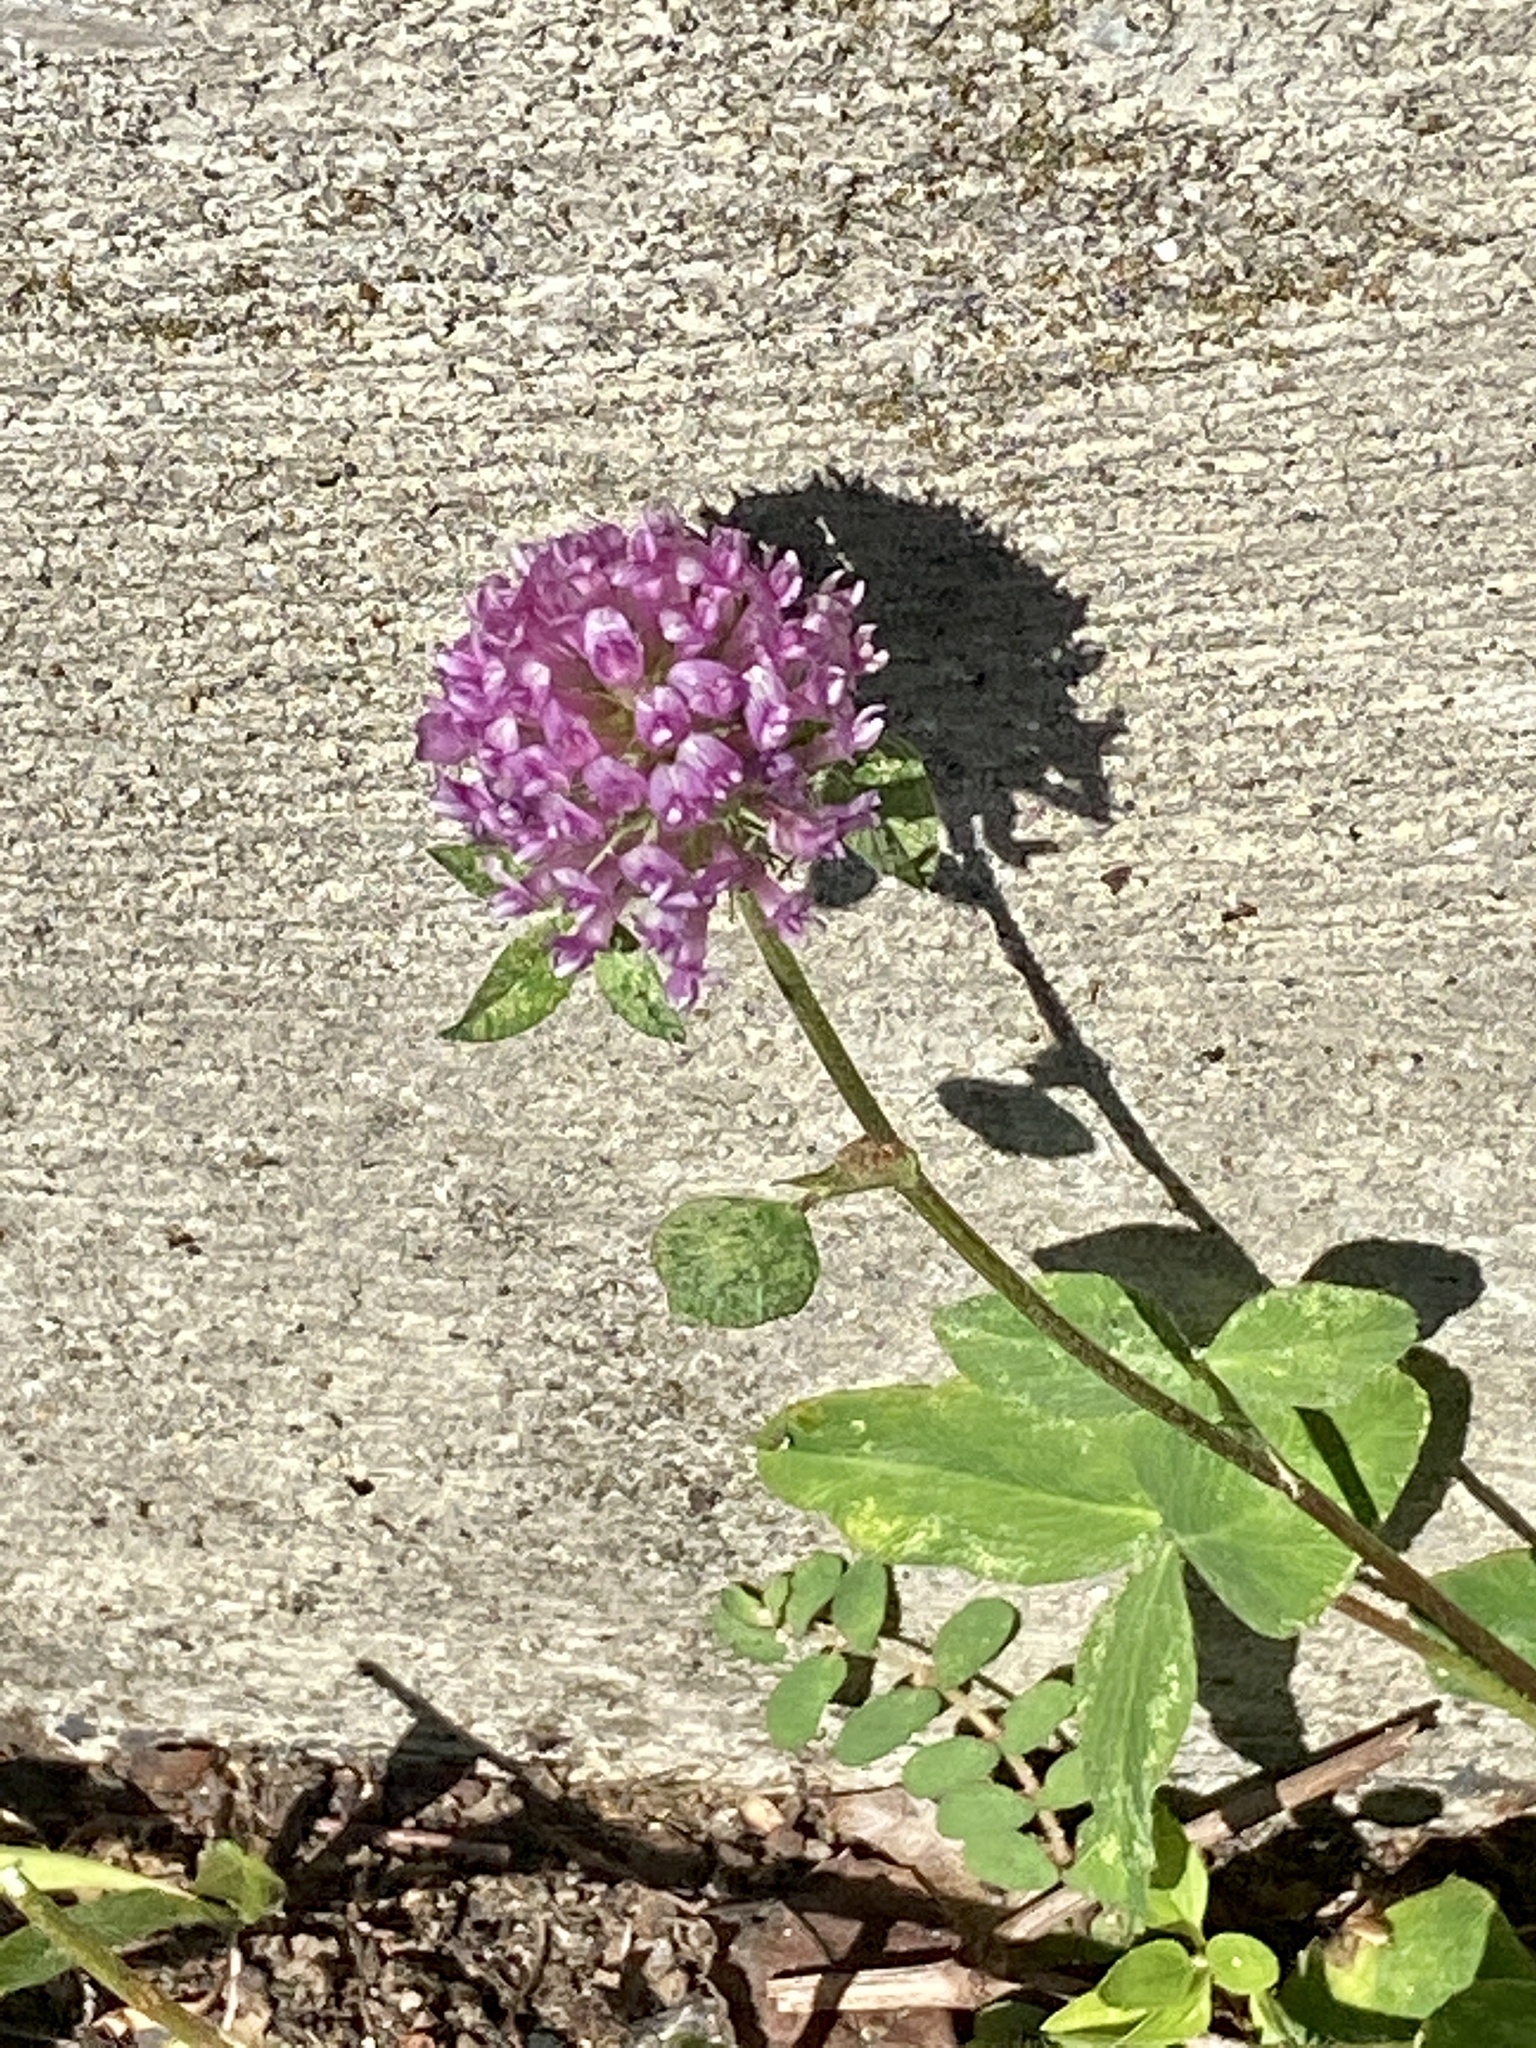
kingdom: Plantae
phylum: Tracheophyta
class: Magnoliopsida
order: Fabales
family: Fabaceae
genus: Trifolium
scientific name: Trifolium pratense
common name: Red clover
